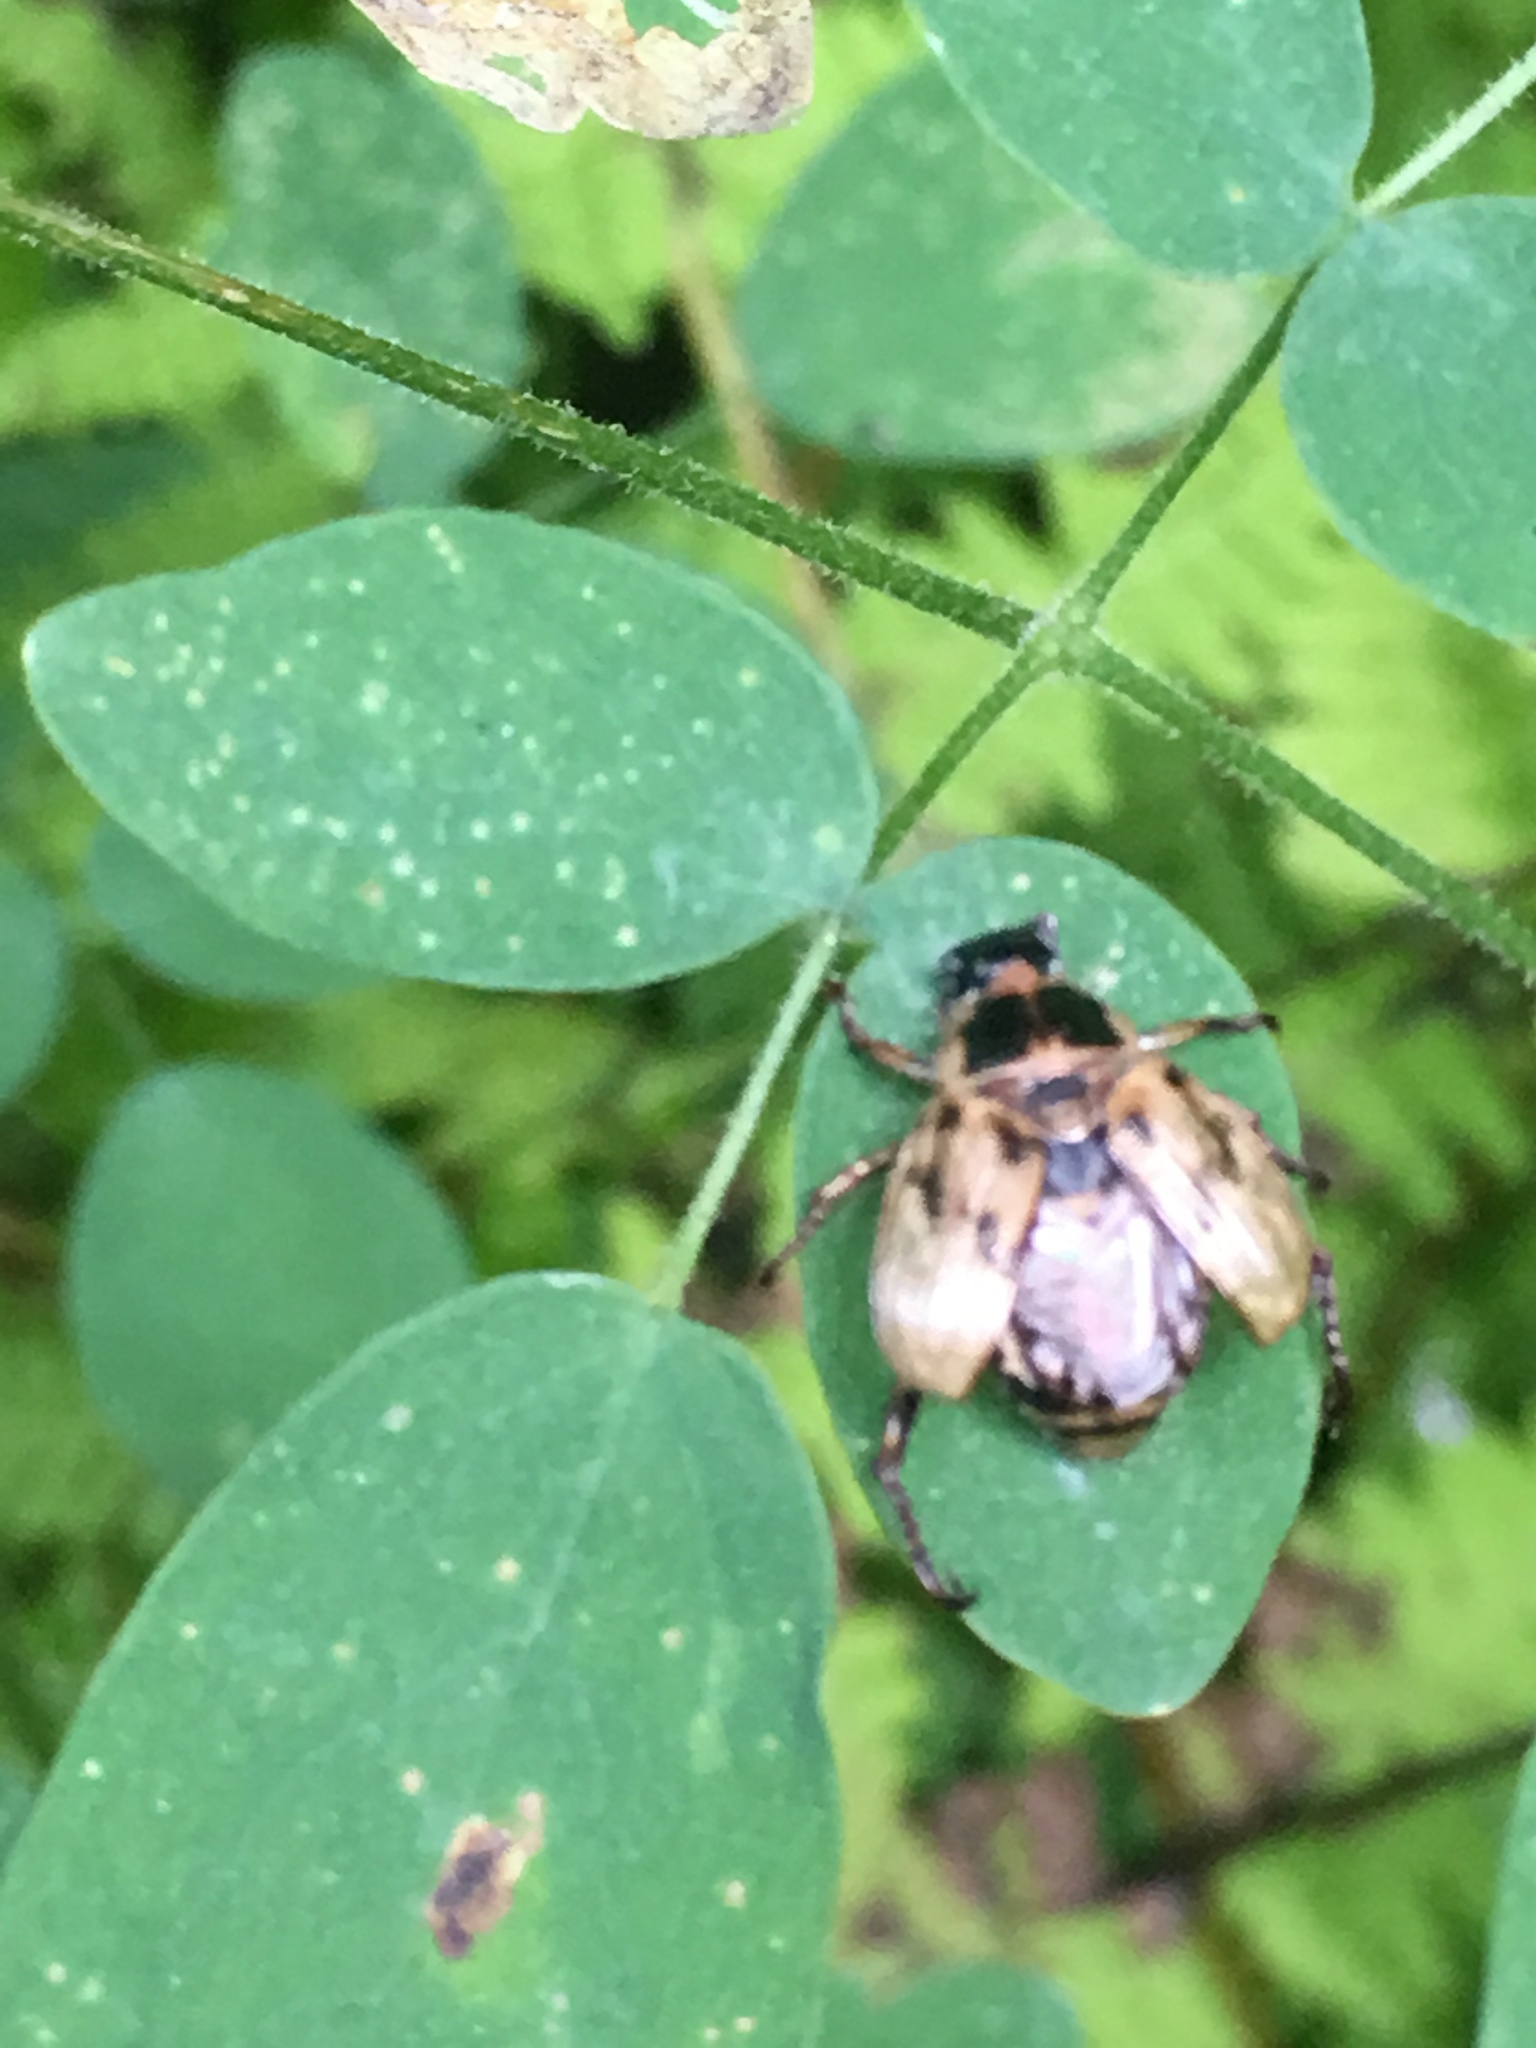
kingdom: Animalia
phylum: Arthropoda
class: Insecta
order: Coleoptera
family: Scarabaeidae
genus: Exomala
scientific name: Exomala orientalis
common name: Oriental beetle
